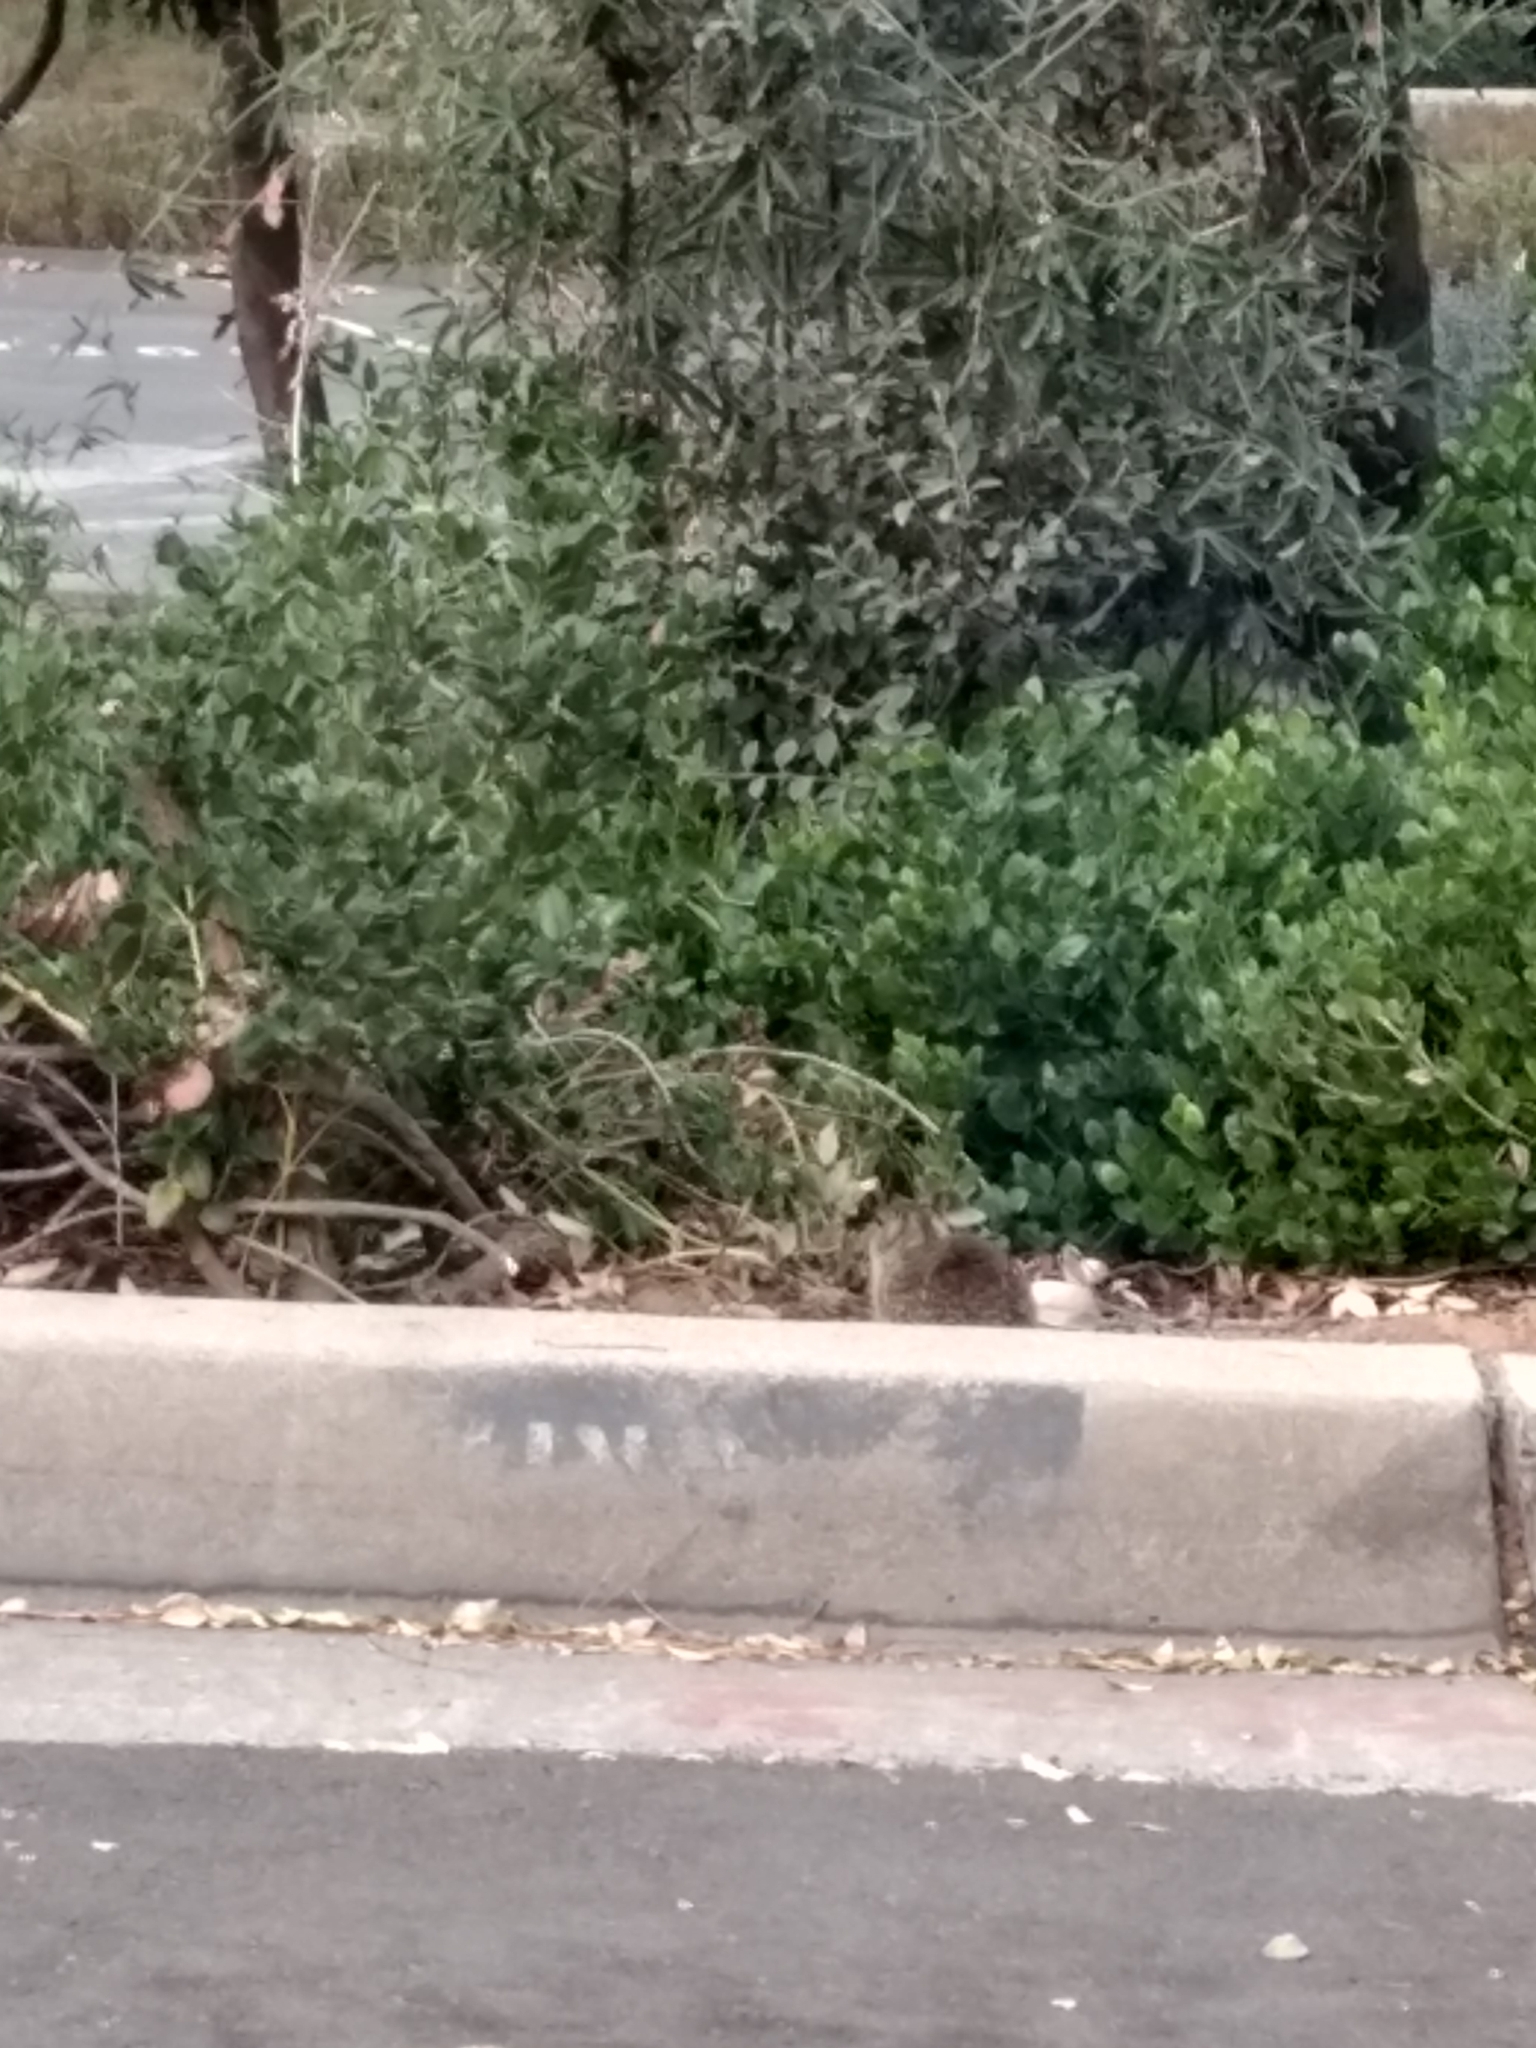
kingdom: Animalia
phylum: Chordata
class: Mammalia
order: Rodentia
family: Sciuridae
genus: Otospermophilus
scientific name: Otospermophilus beecheyi
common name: California ground squirrel
